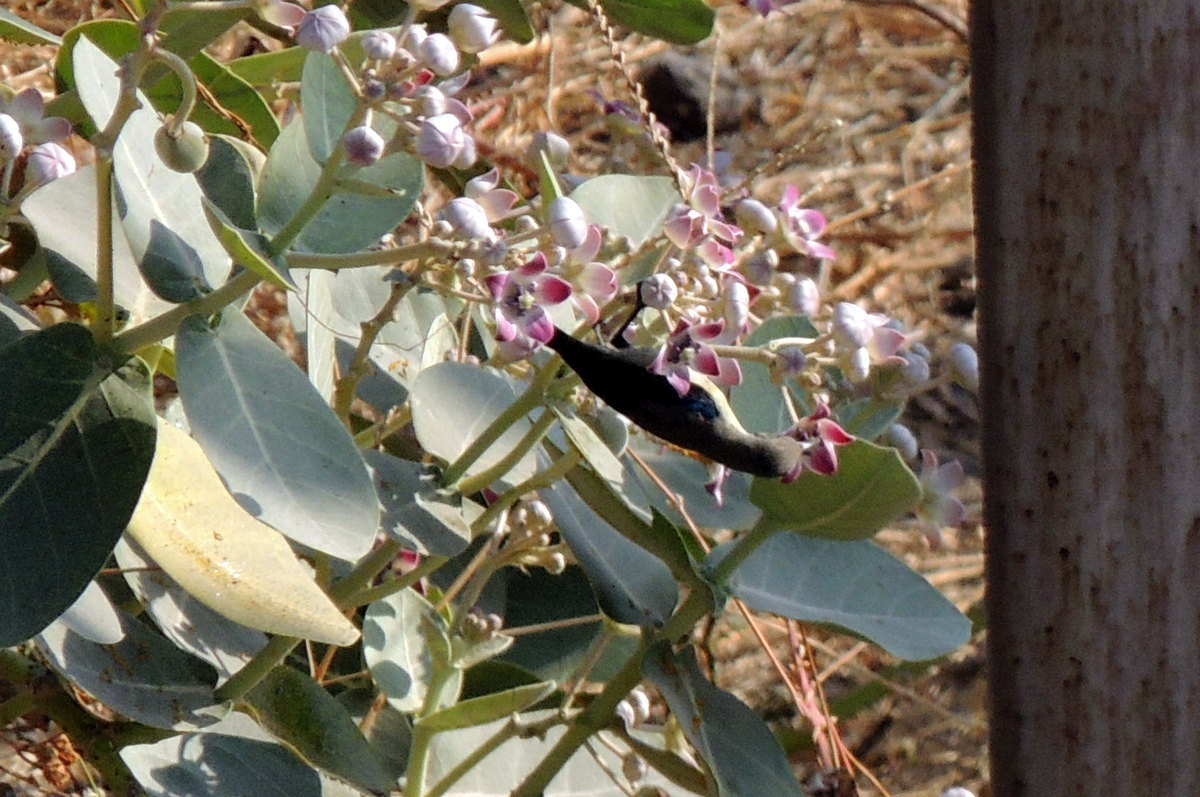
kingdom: Animalia
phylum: Chordata
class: Aves
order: Passeriformes
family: Nectariniidae
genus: Cinnyris
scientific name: Cinnyris asiaticus
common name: Purple sunbird
